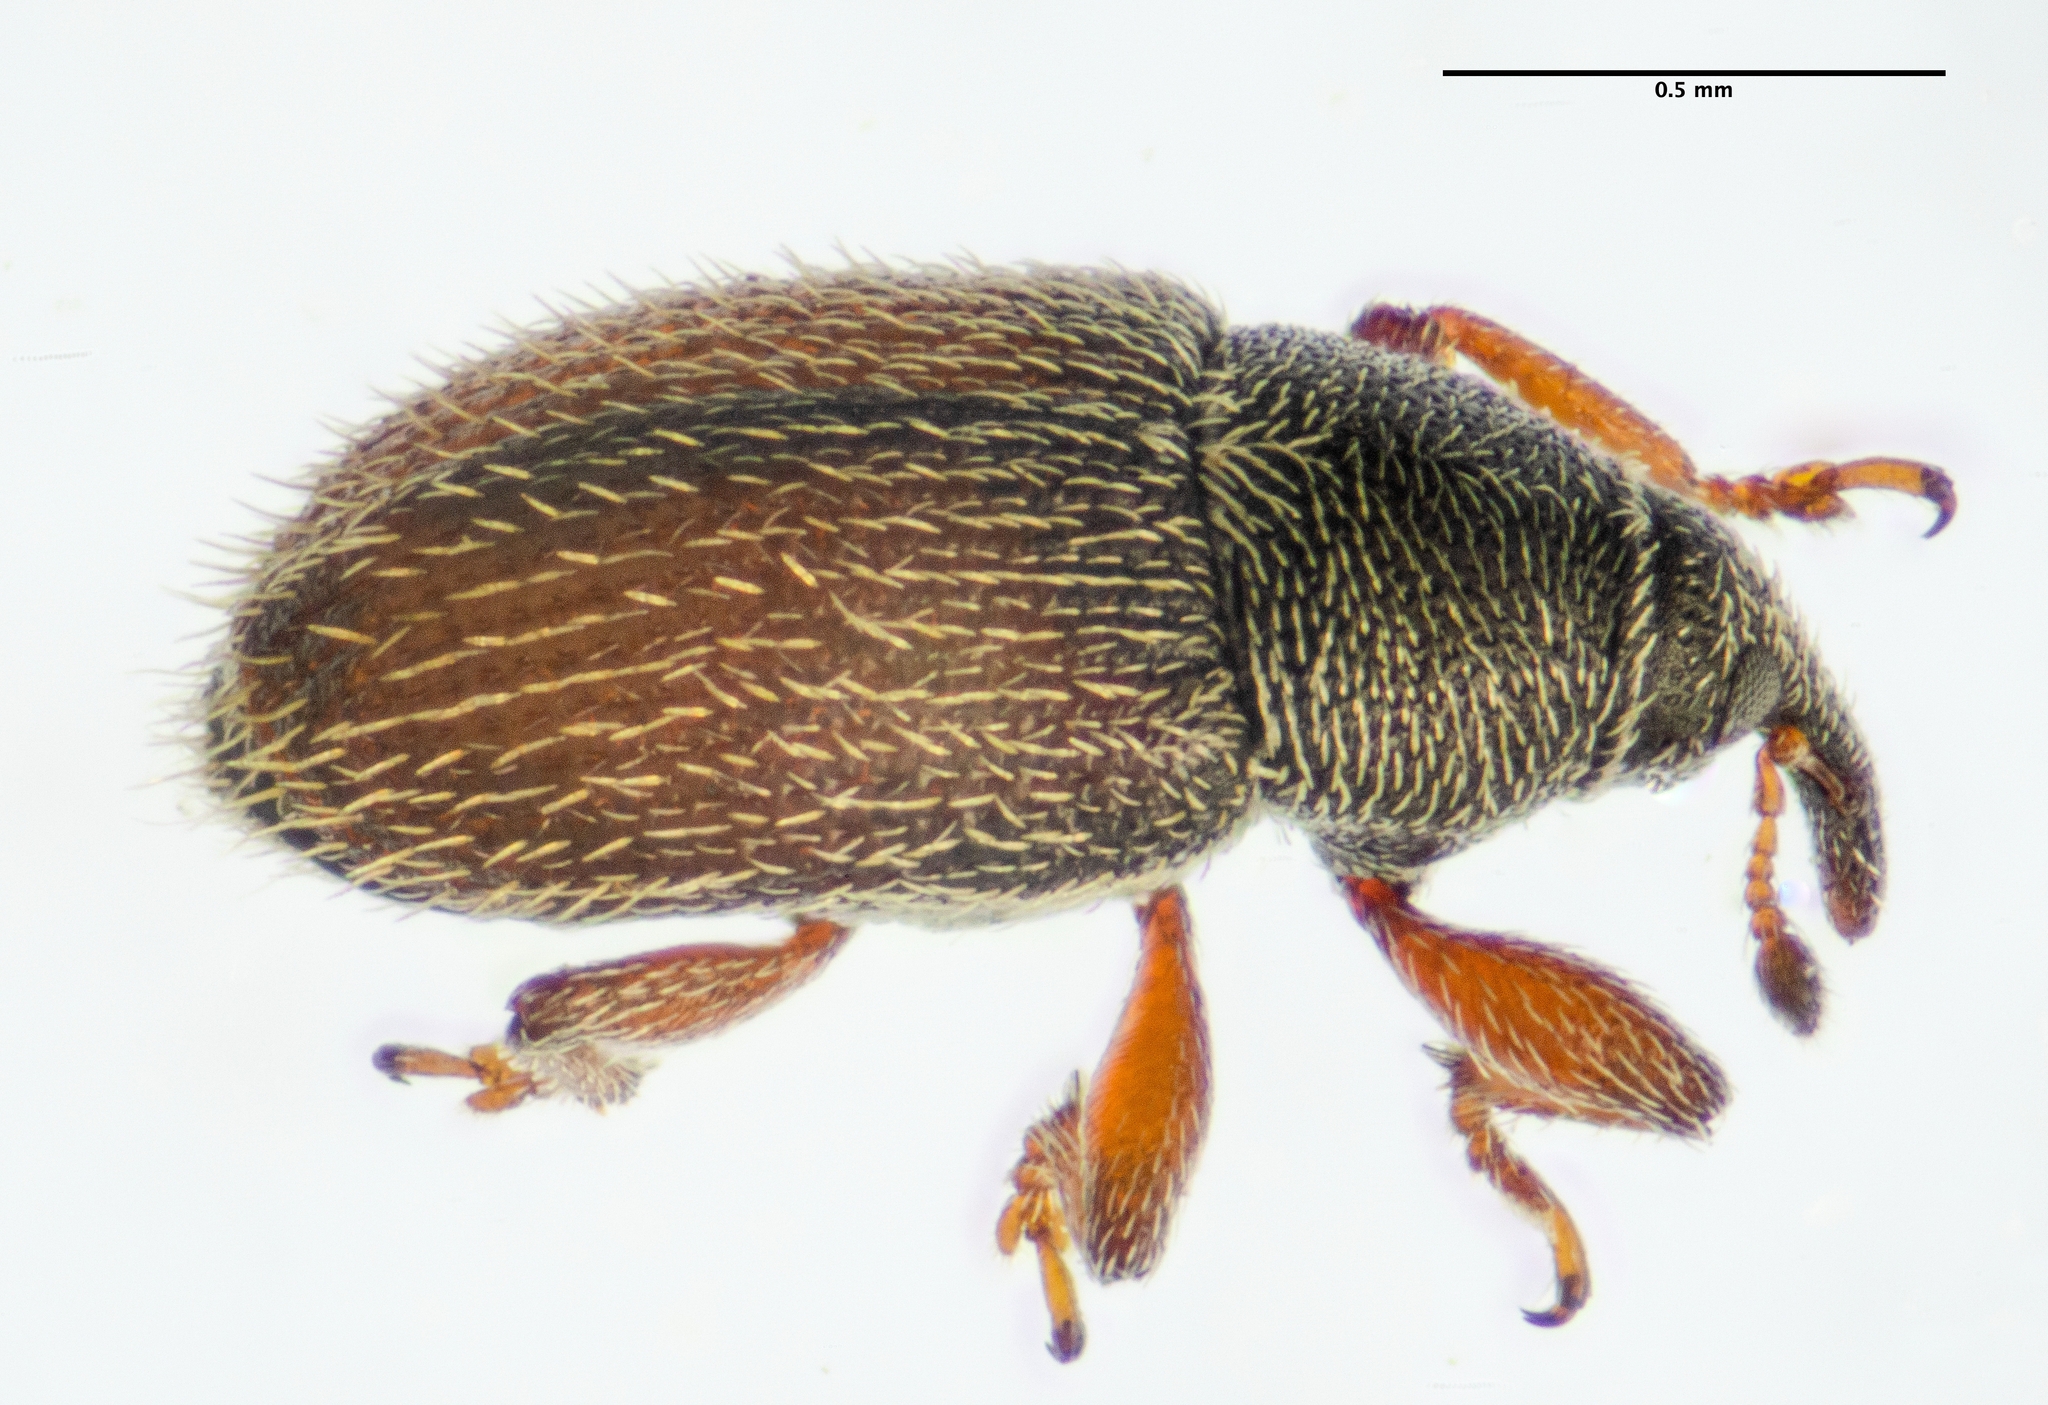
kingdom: Animalia
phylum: Arthropoda
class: Insecta
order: Coleoptera
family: Curculionidae
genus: Mecinus
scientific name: Mecinus pascuorum
